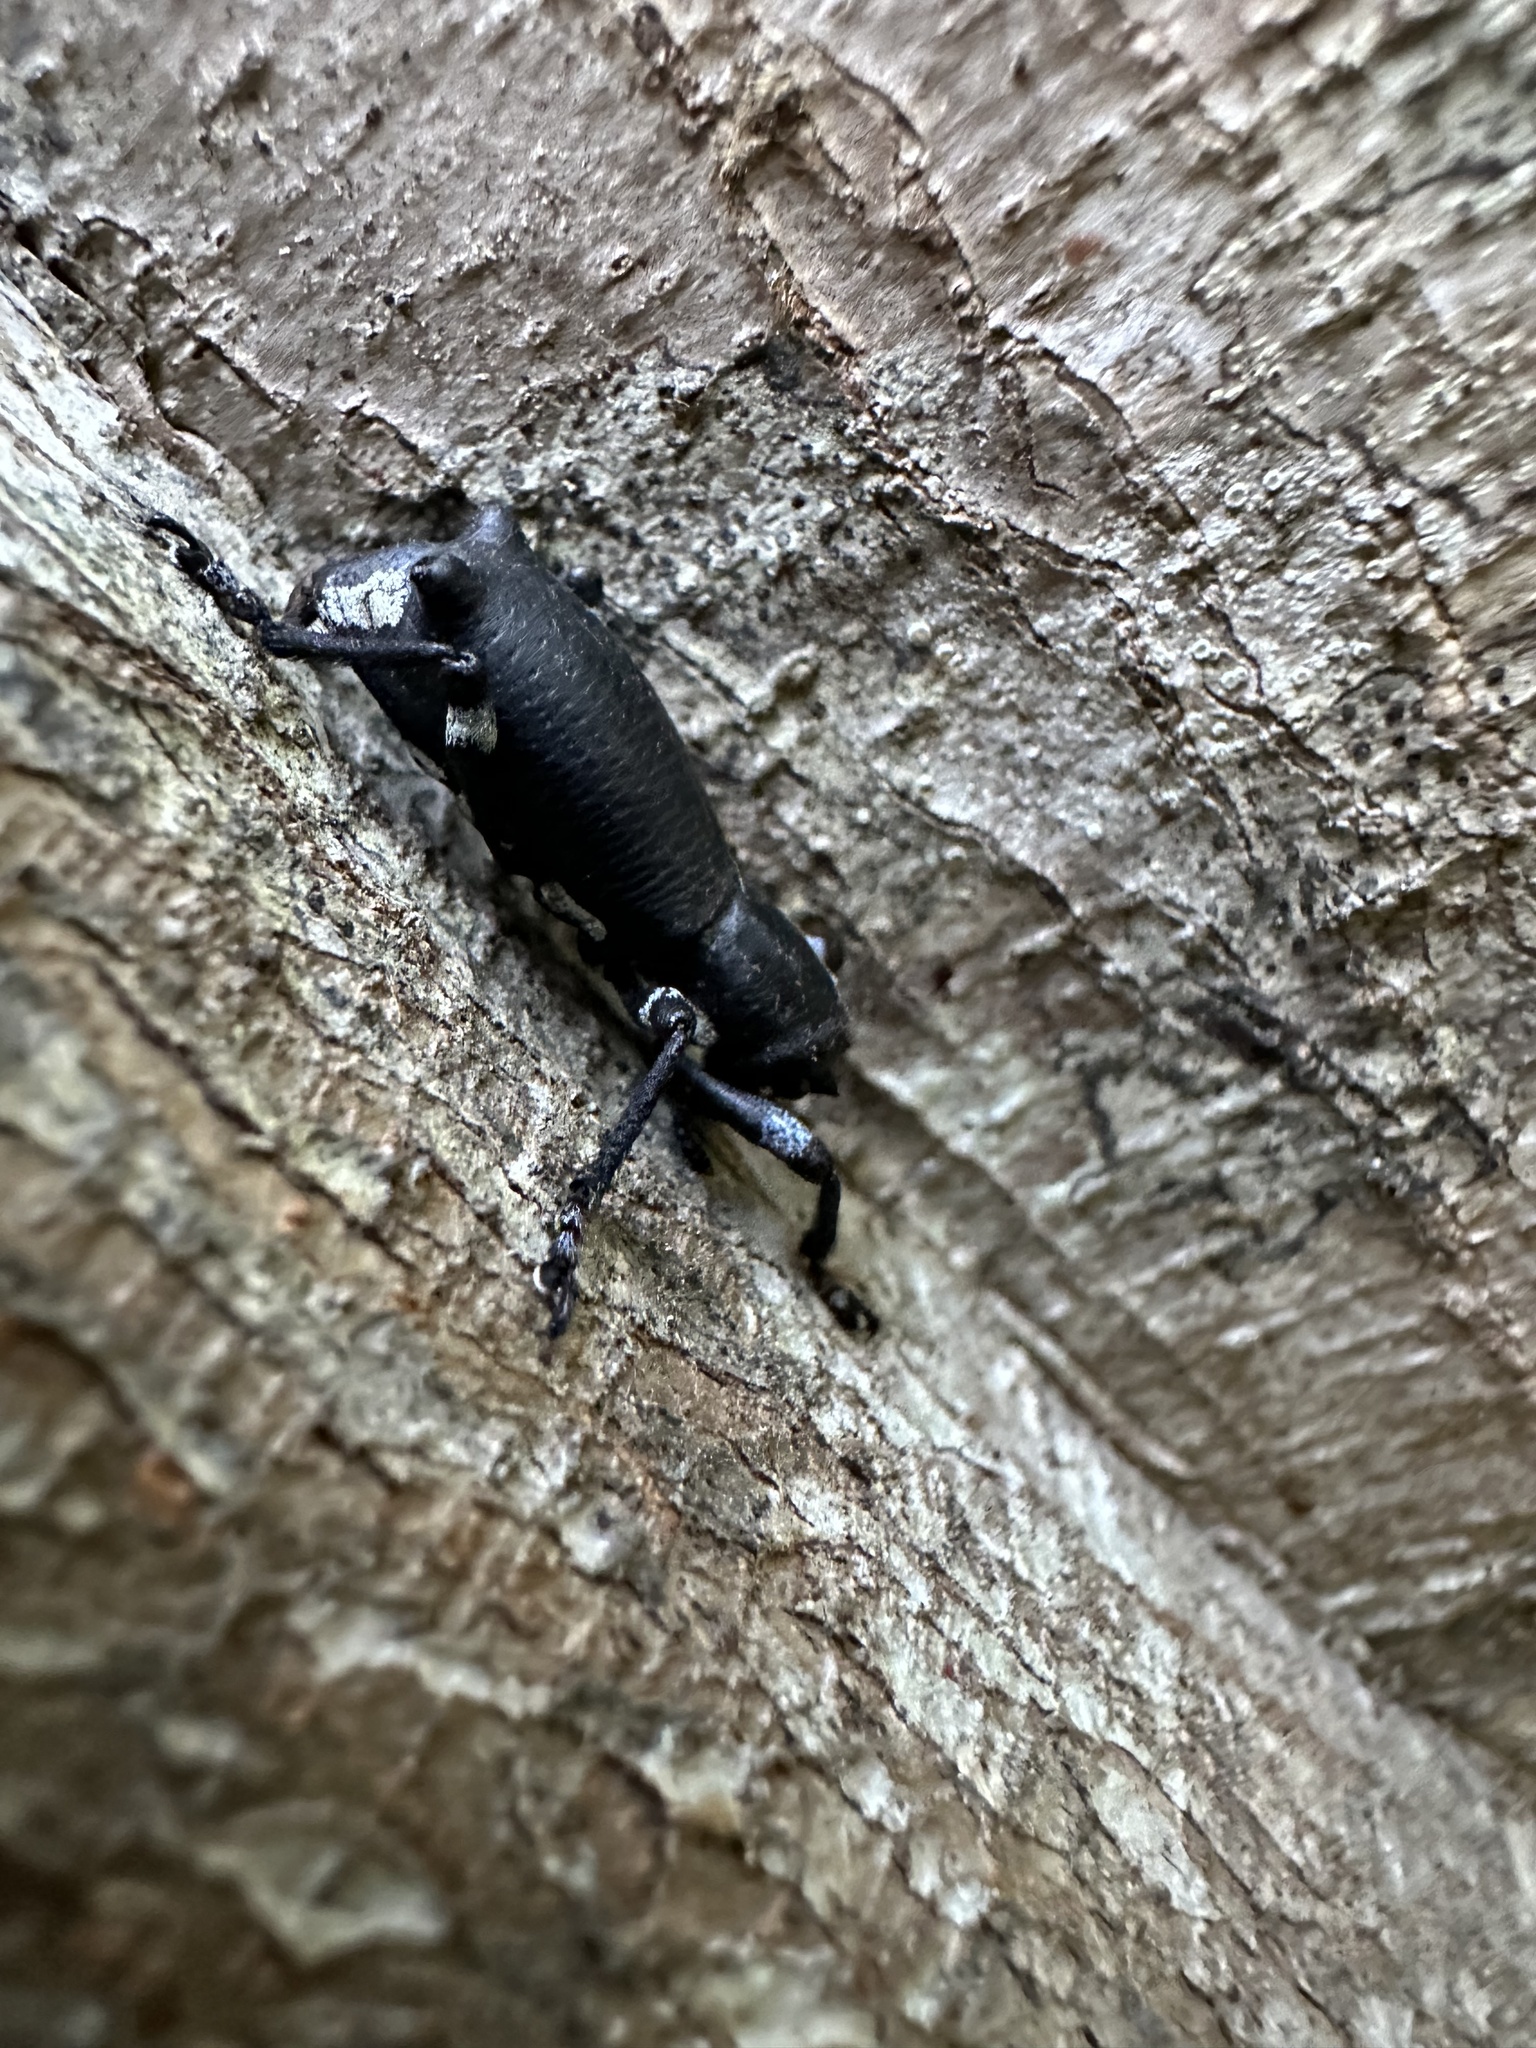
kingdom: Animalia
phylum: Arthropoda
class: Insecta
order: Coleoptera
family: Curculionidae
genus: Aegorhinus
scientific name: Aegorhinus
